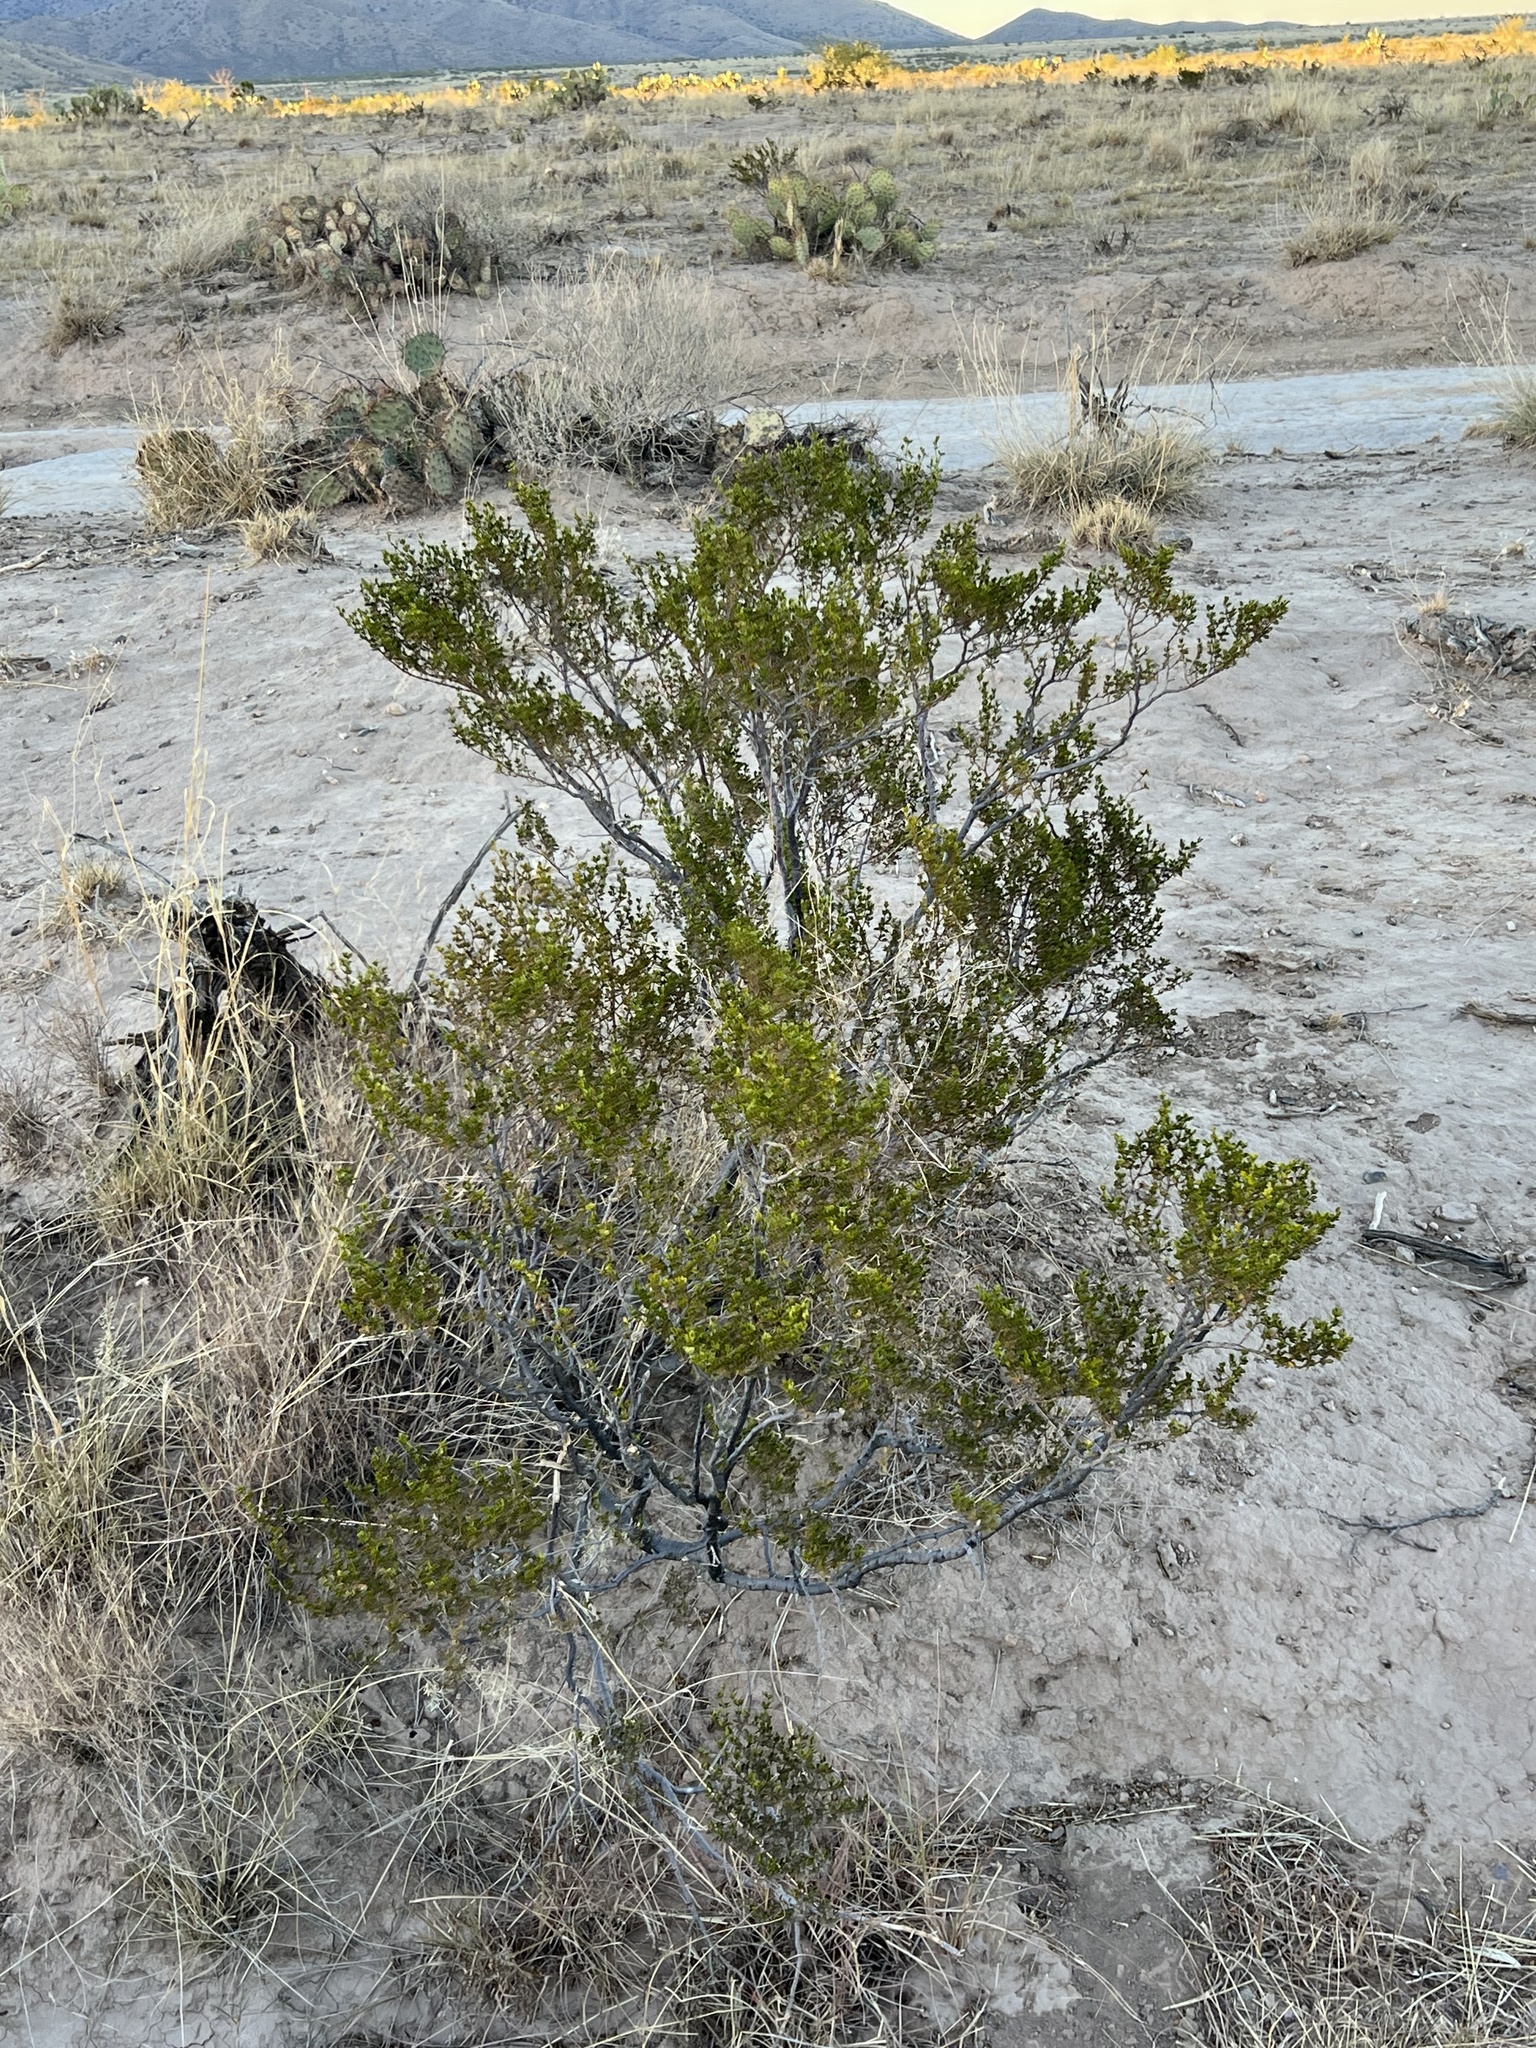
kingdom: Plantae
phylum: Tracheophyta
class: Magnoliopsida
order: Zygophyllales
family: Zygophyllaceae
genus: Larrea
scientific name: Larrea tridentata
